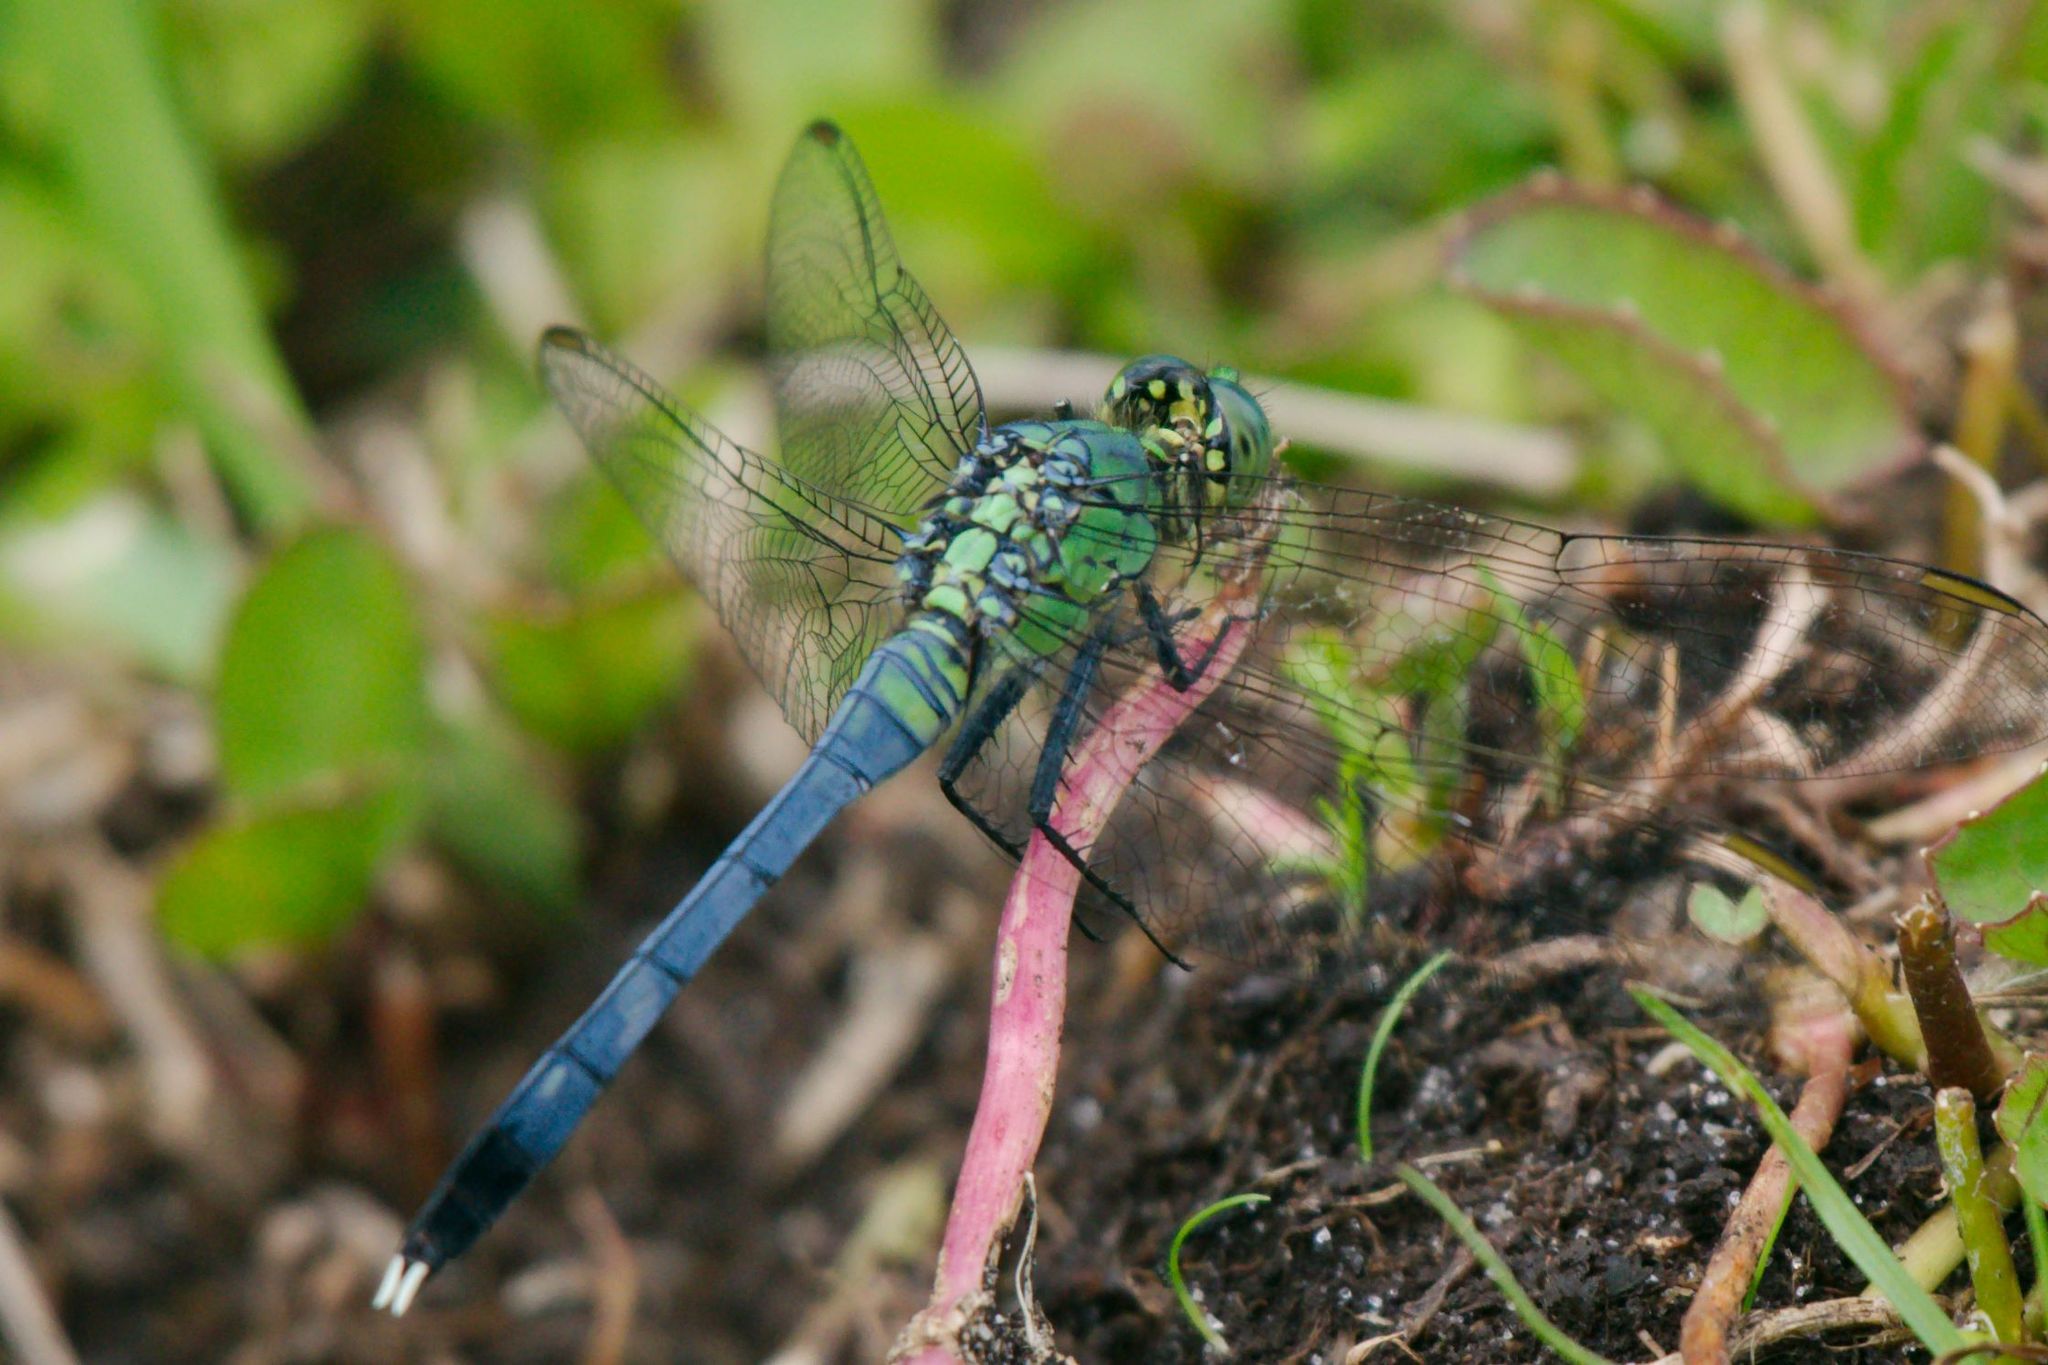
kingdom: Animalia
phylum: Arthropoda
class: Insecta
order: Odonata
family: Libellulidae
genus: Erythemis
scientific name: Erythemis simplicicollis
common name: Eastern pondhawk
